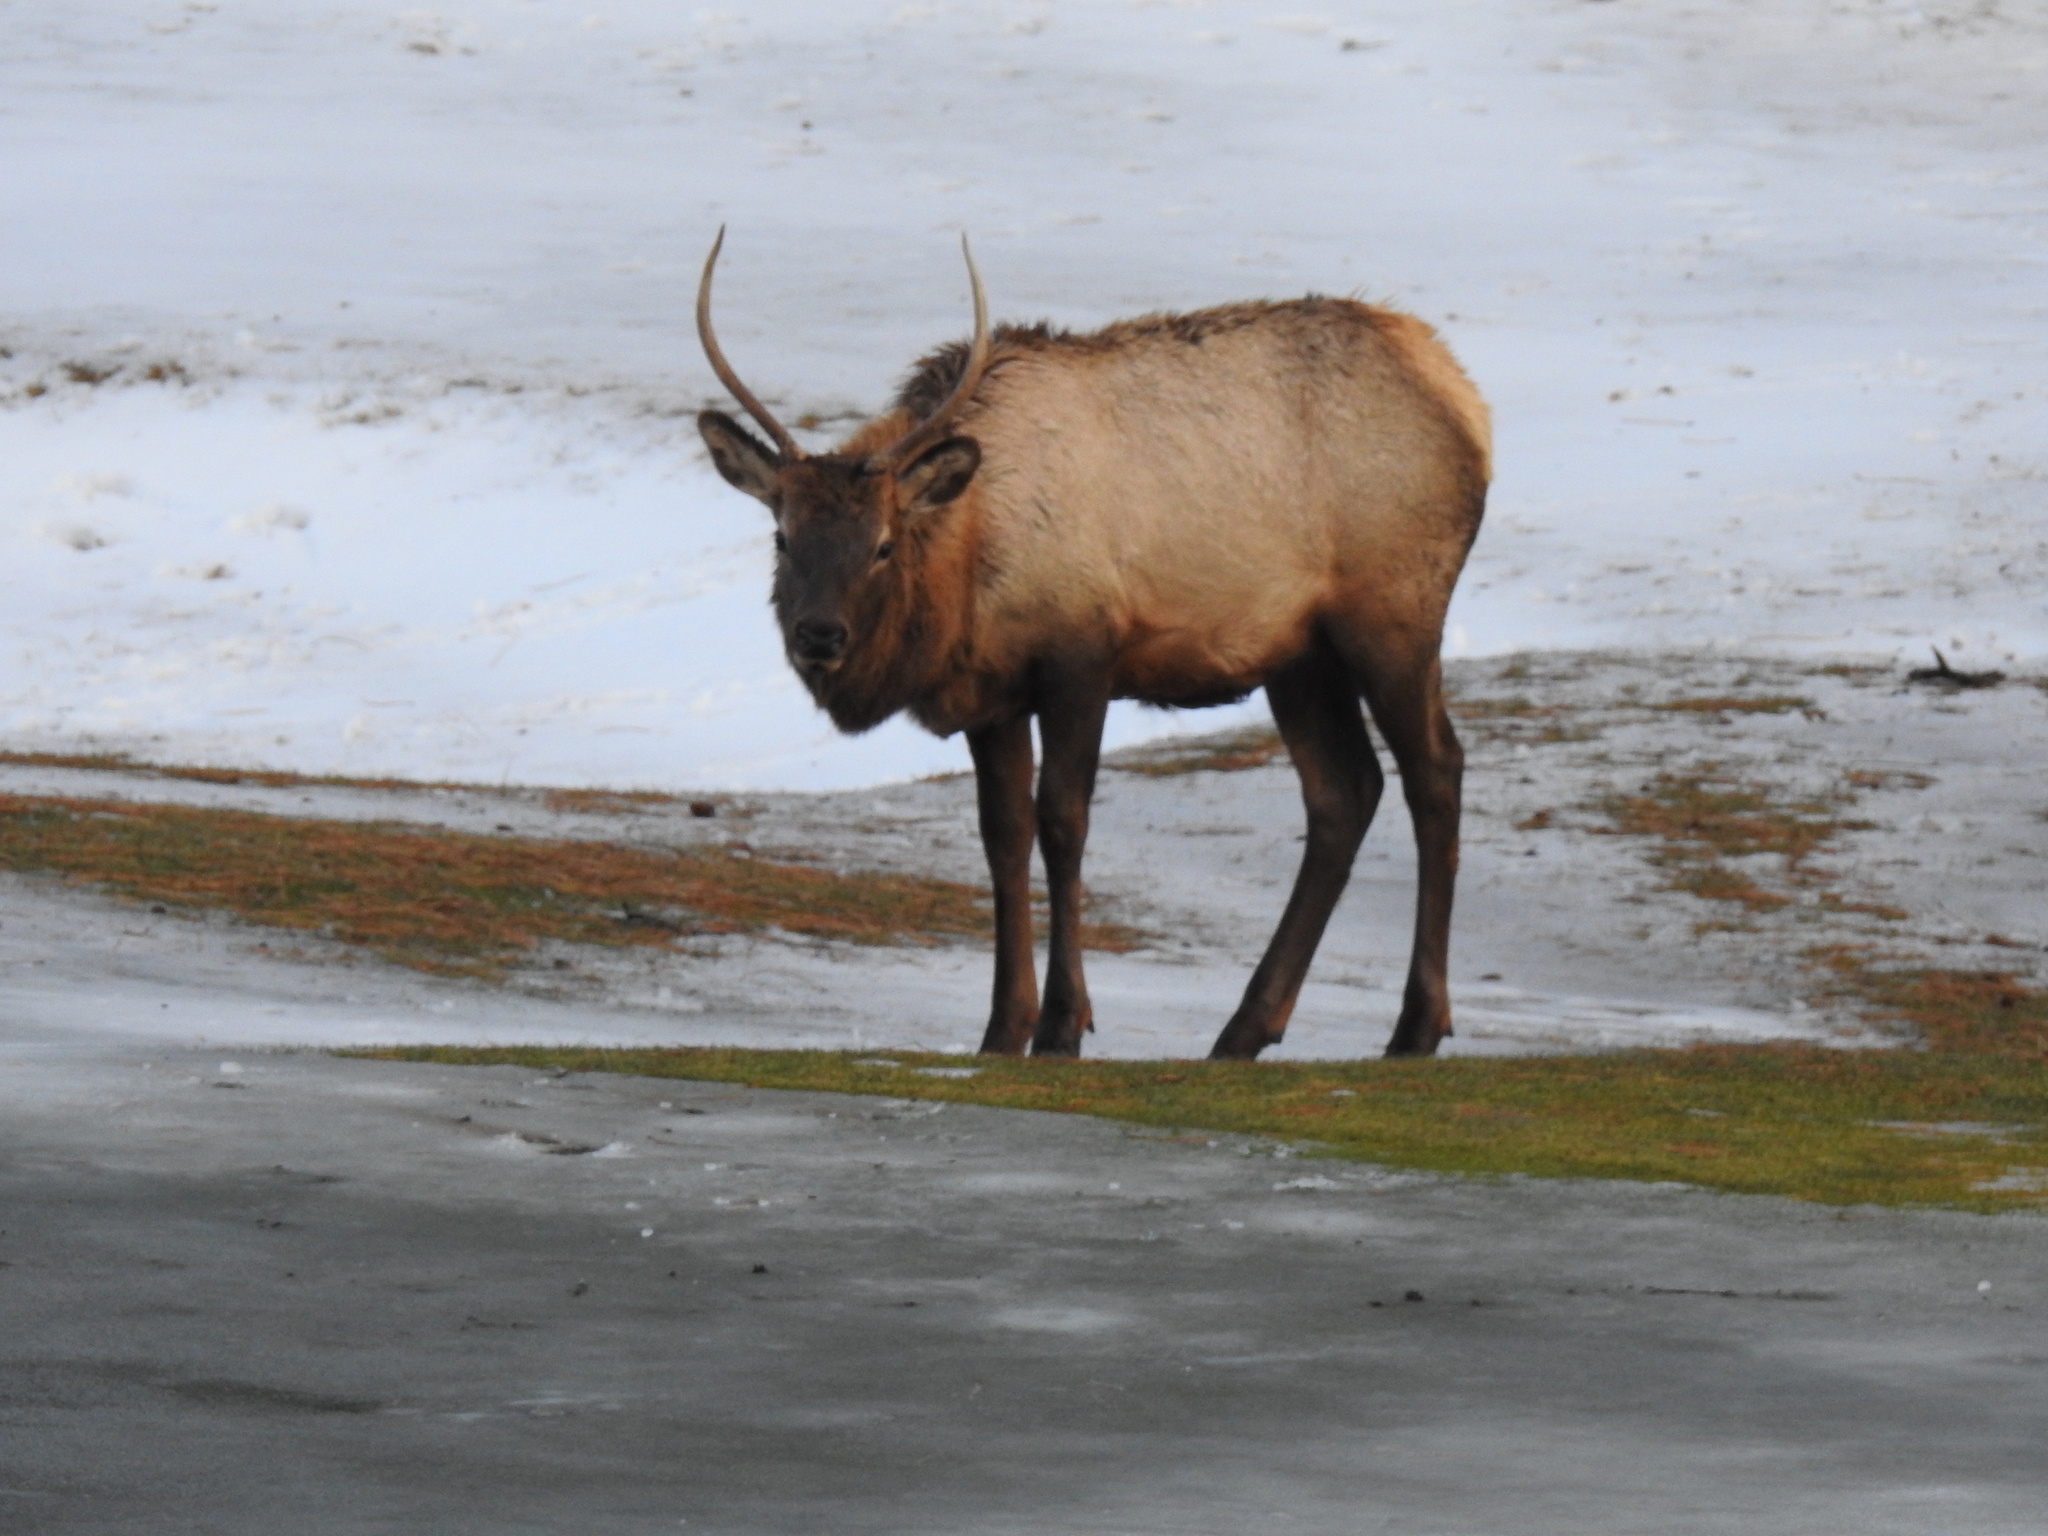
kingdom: Animalia
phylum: Chordata
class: Mammalia
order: Artiodactyla
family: Cervidae
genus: Cervus
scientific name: Cervus elaphus
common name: Red deer
